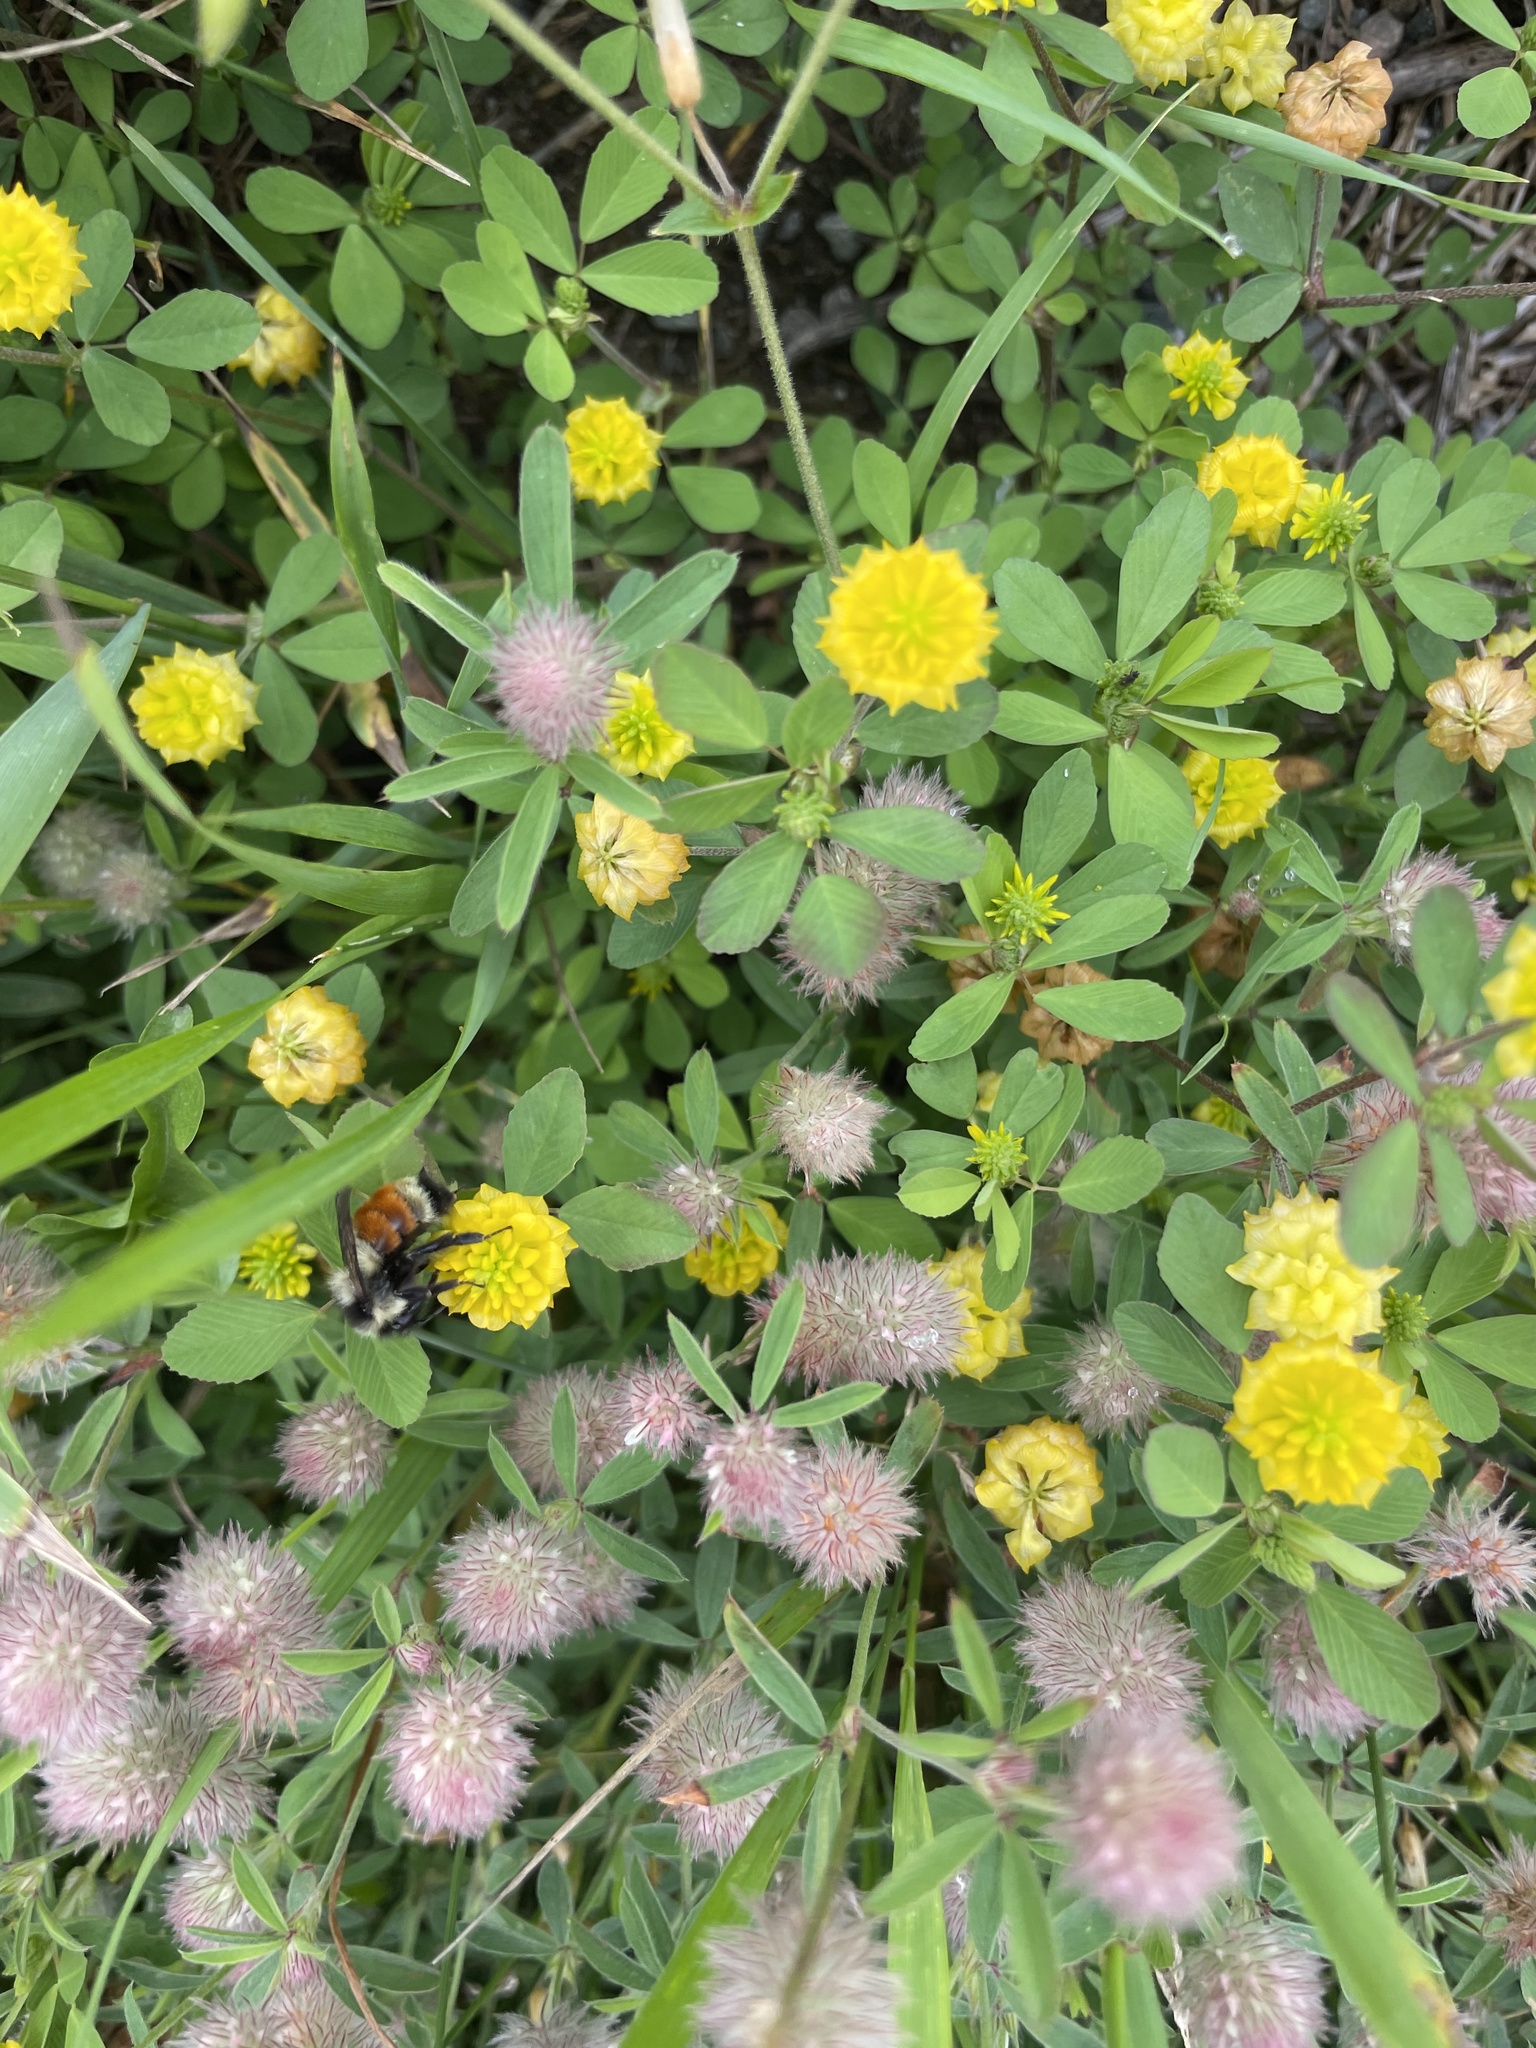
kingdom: Animalia
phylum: Arthropoda
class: Insecta
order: Hymenoptera
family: Apidae
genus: Bombus
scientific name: Bombus ternarius
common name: Tri-colored bumble bee
